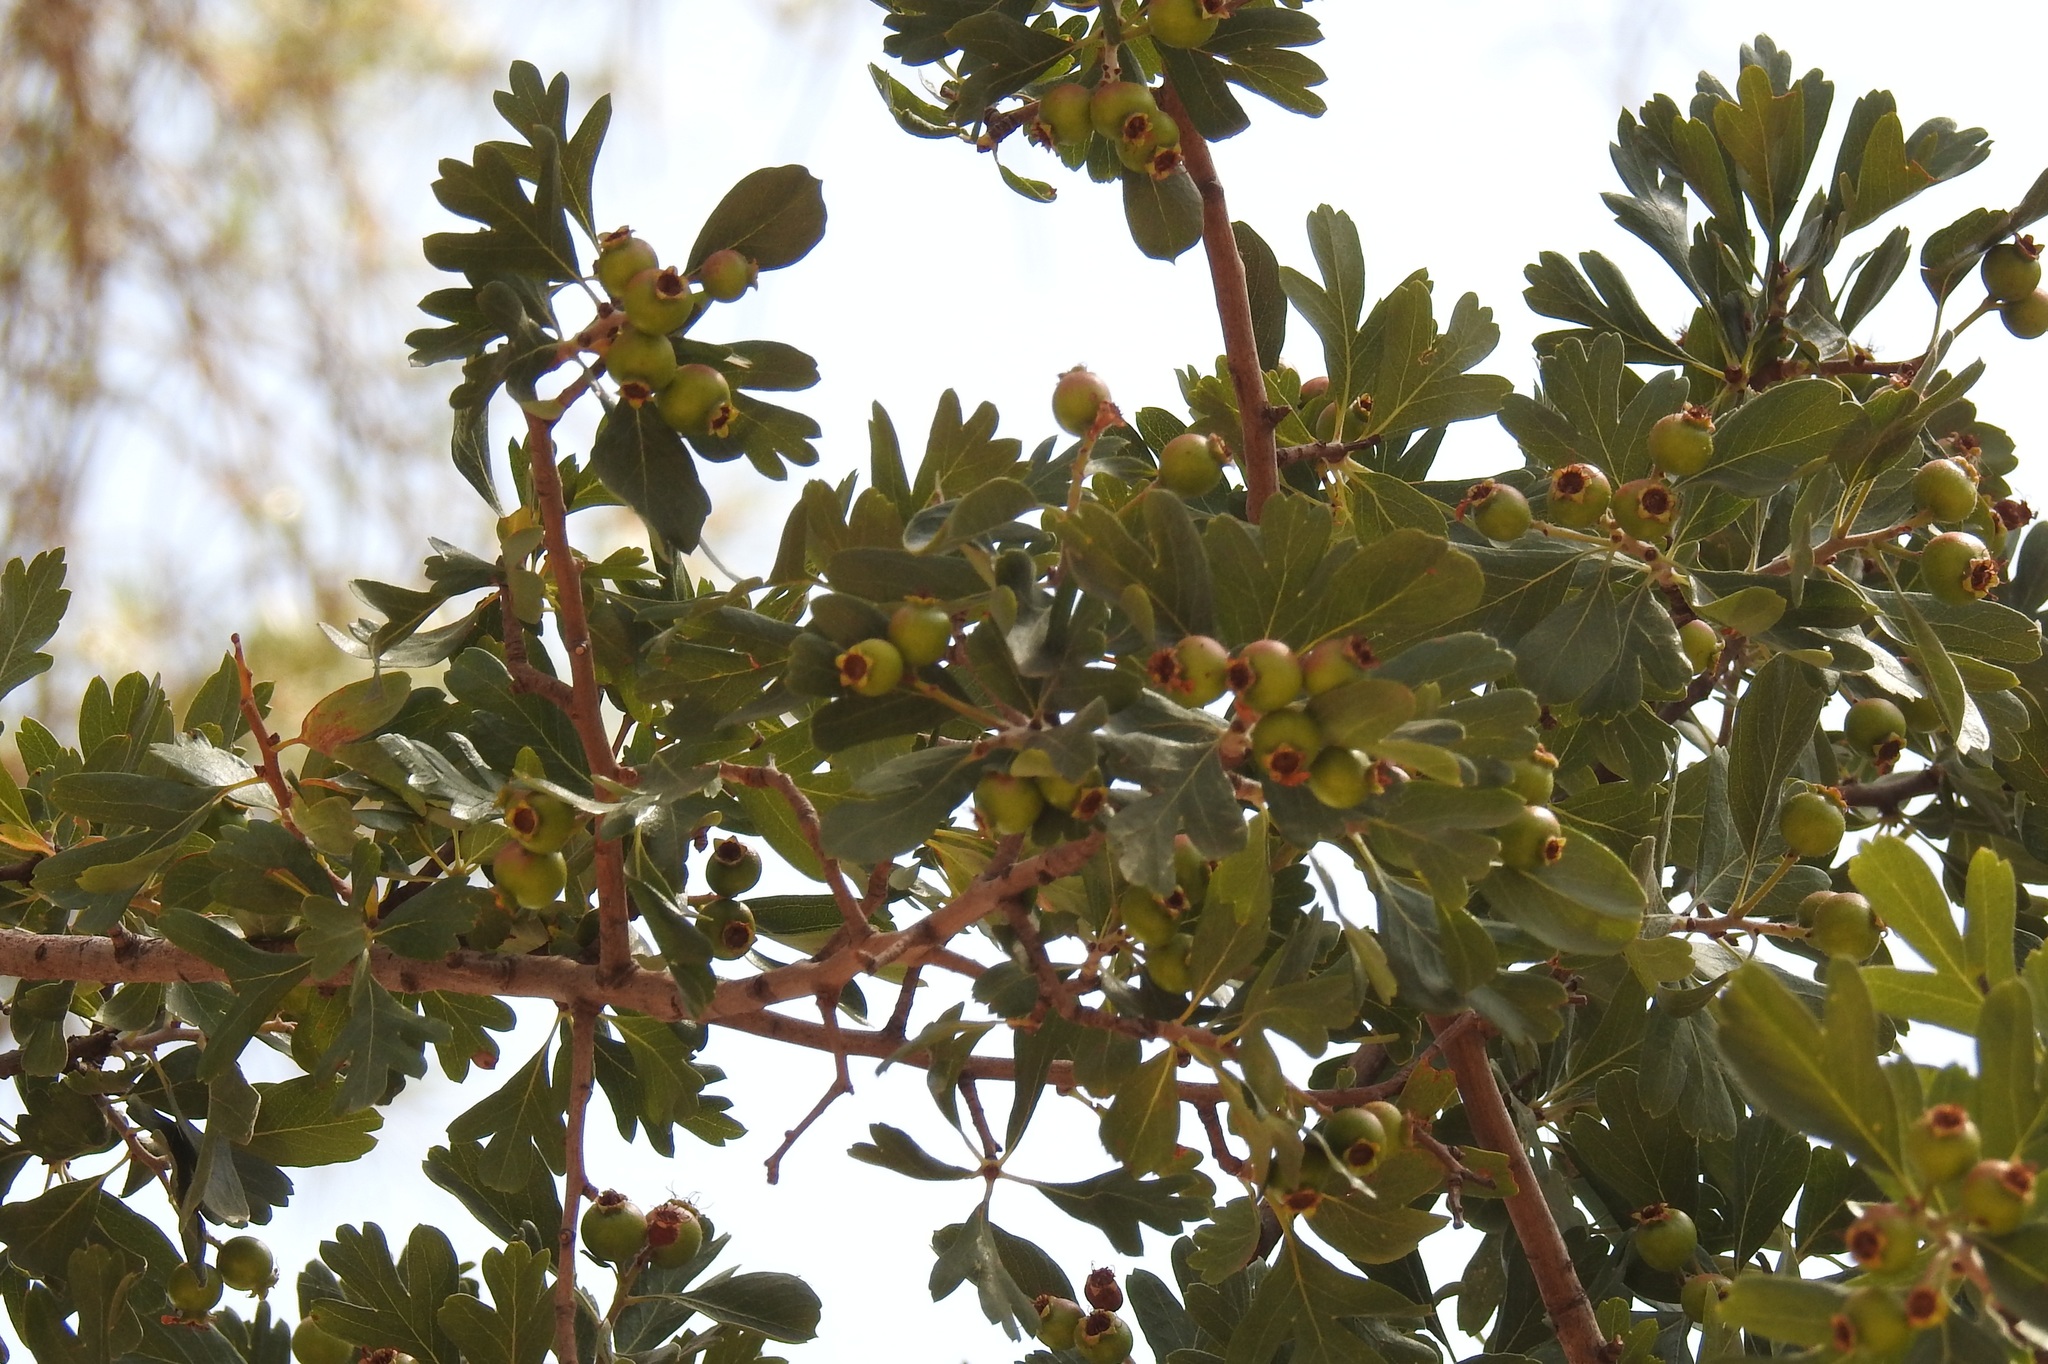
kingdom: Plantae
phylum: Tracheophyta
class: Magnoliopsida
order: Rosales
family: Rosaceae
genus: Crataegus
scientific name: Crataegus monogyna
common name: Hawthorn
